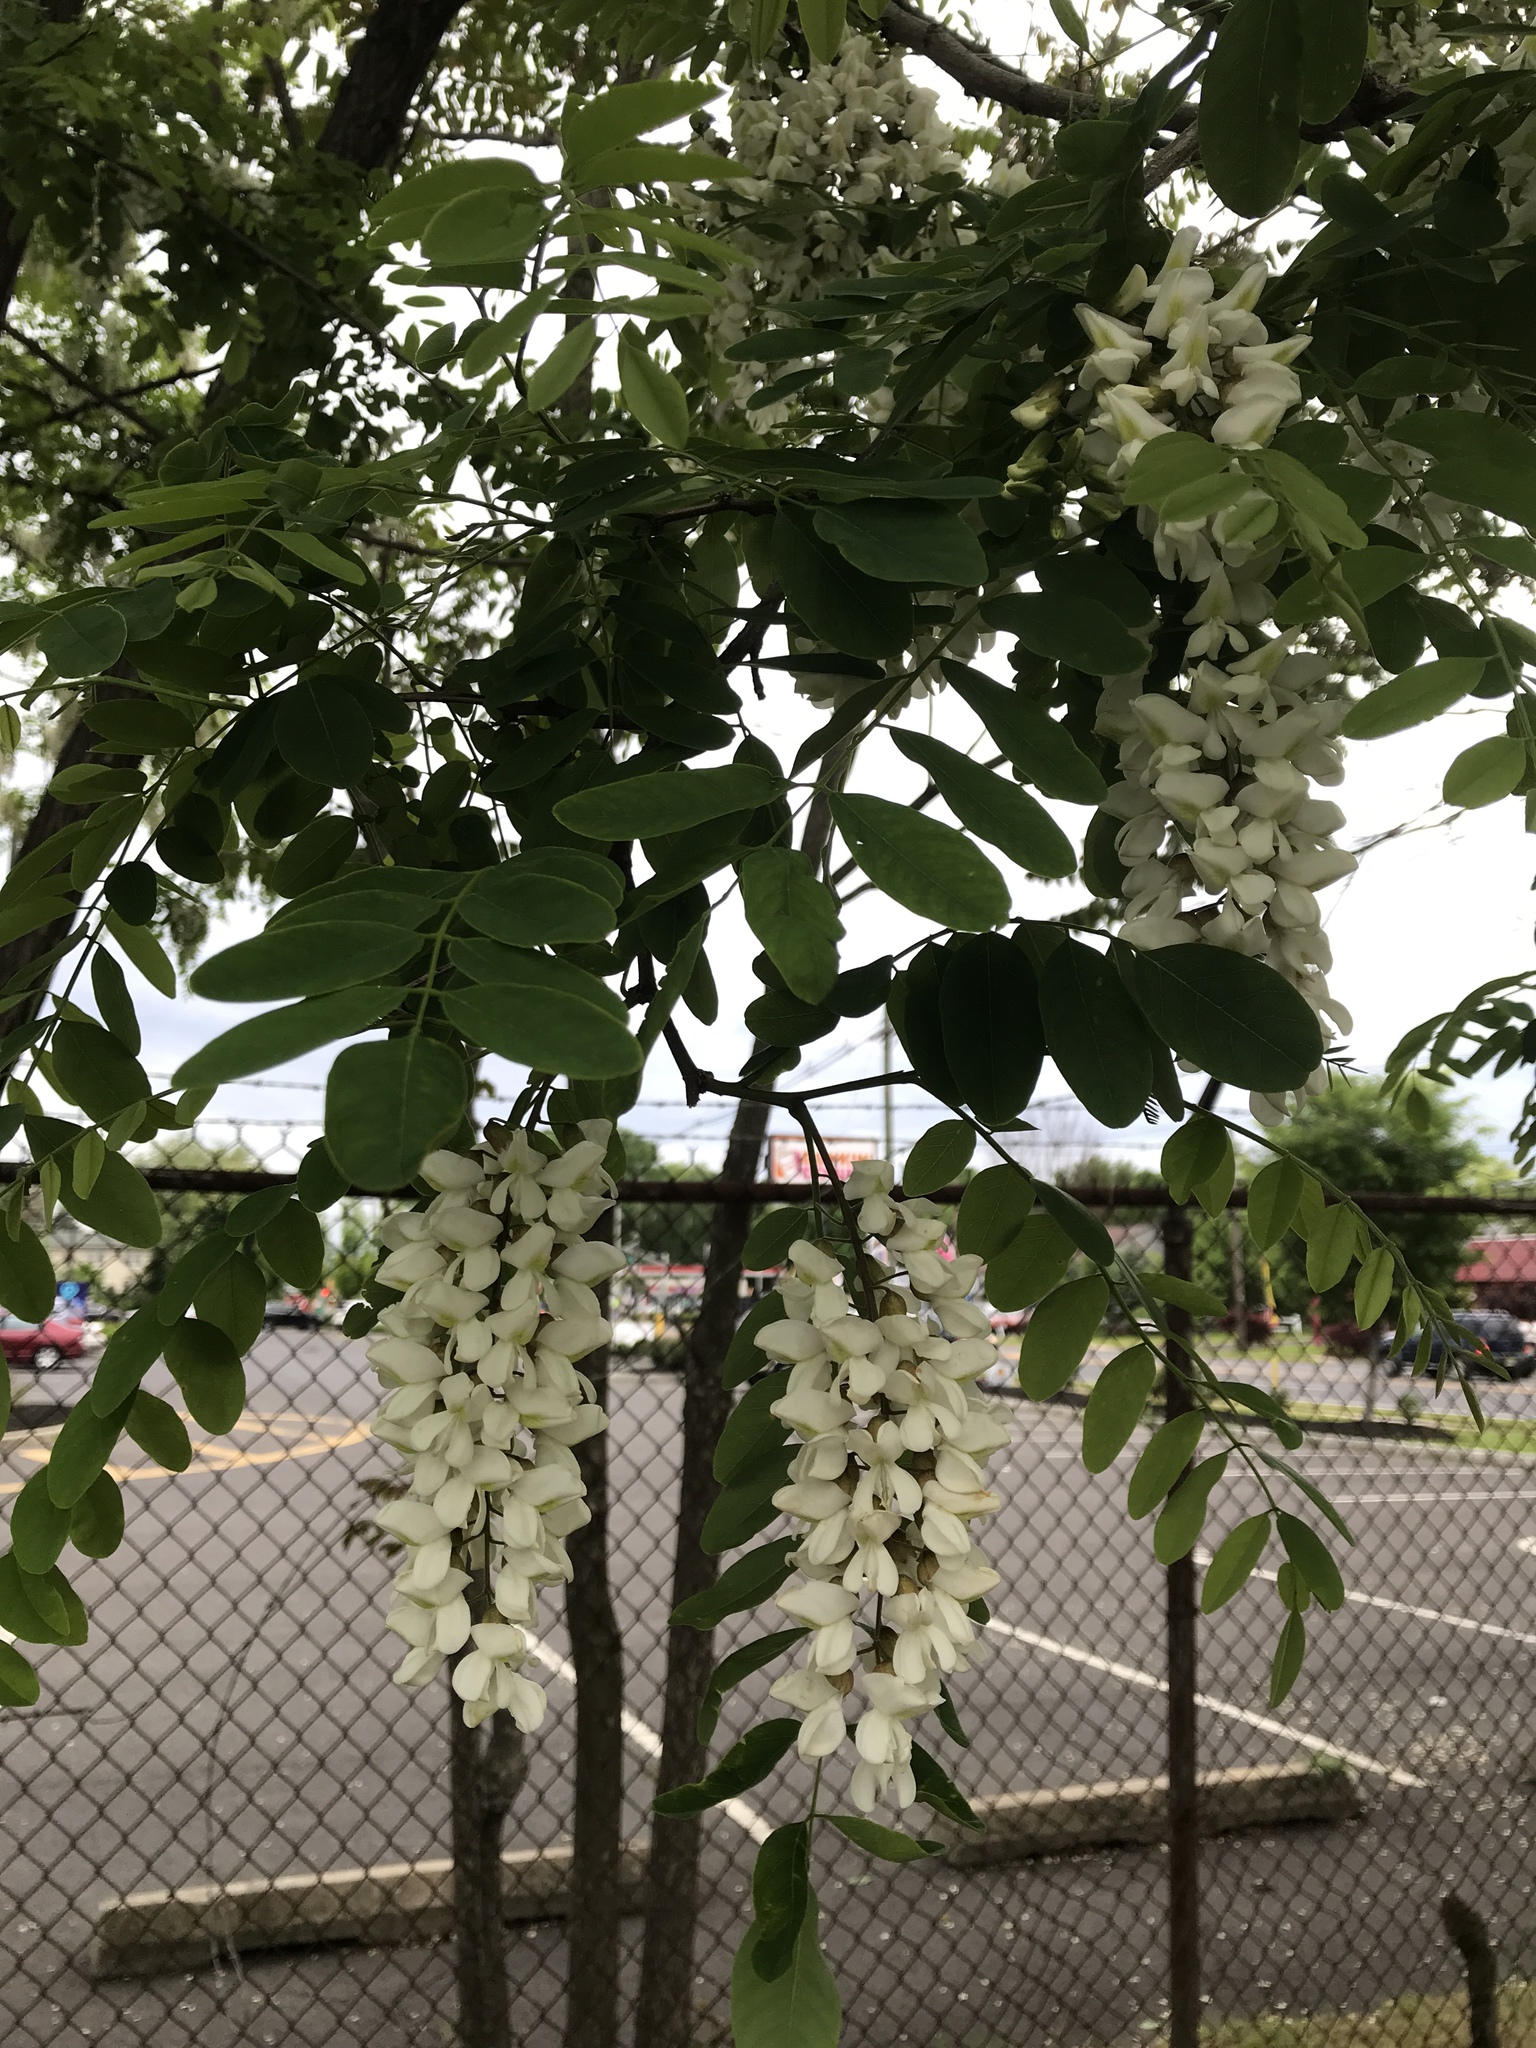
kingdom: Plantae
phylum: Tracheophyta
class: Magnoliopsida
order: Fabales
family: Fabaceae
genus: Robinia
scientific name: Robinia pseudoacacia
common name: Black locust
